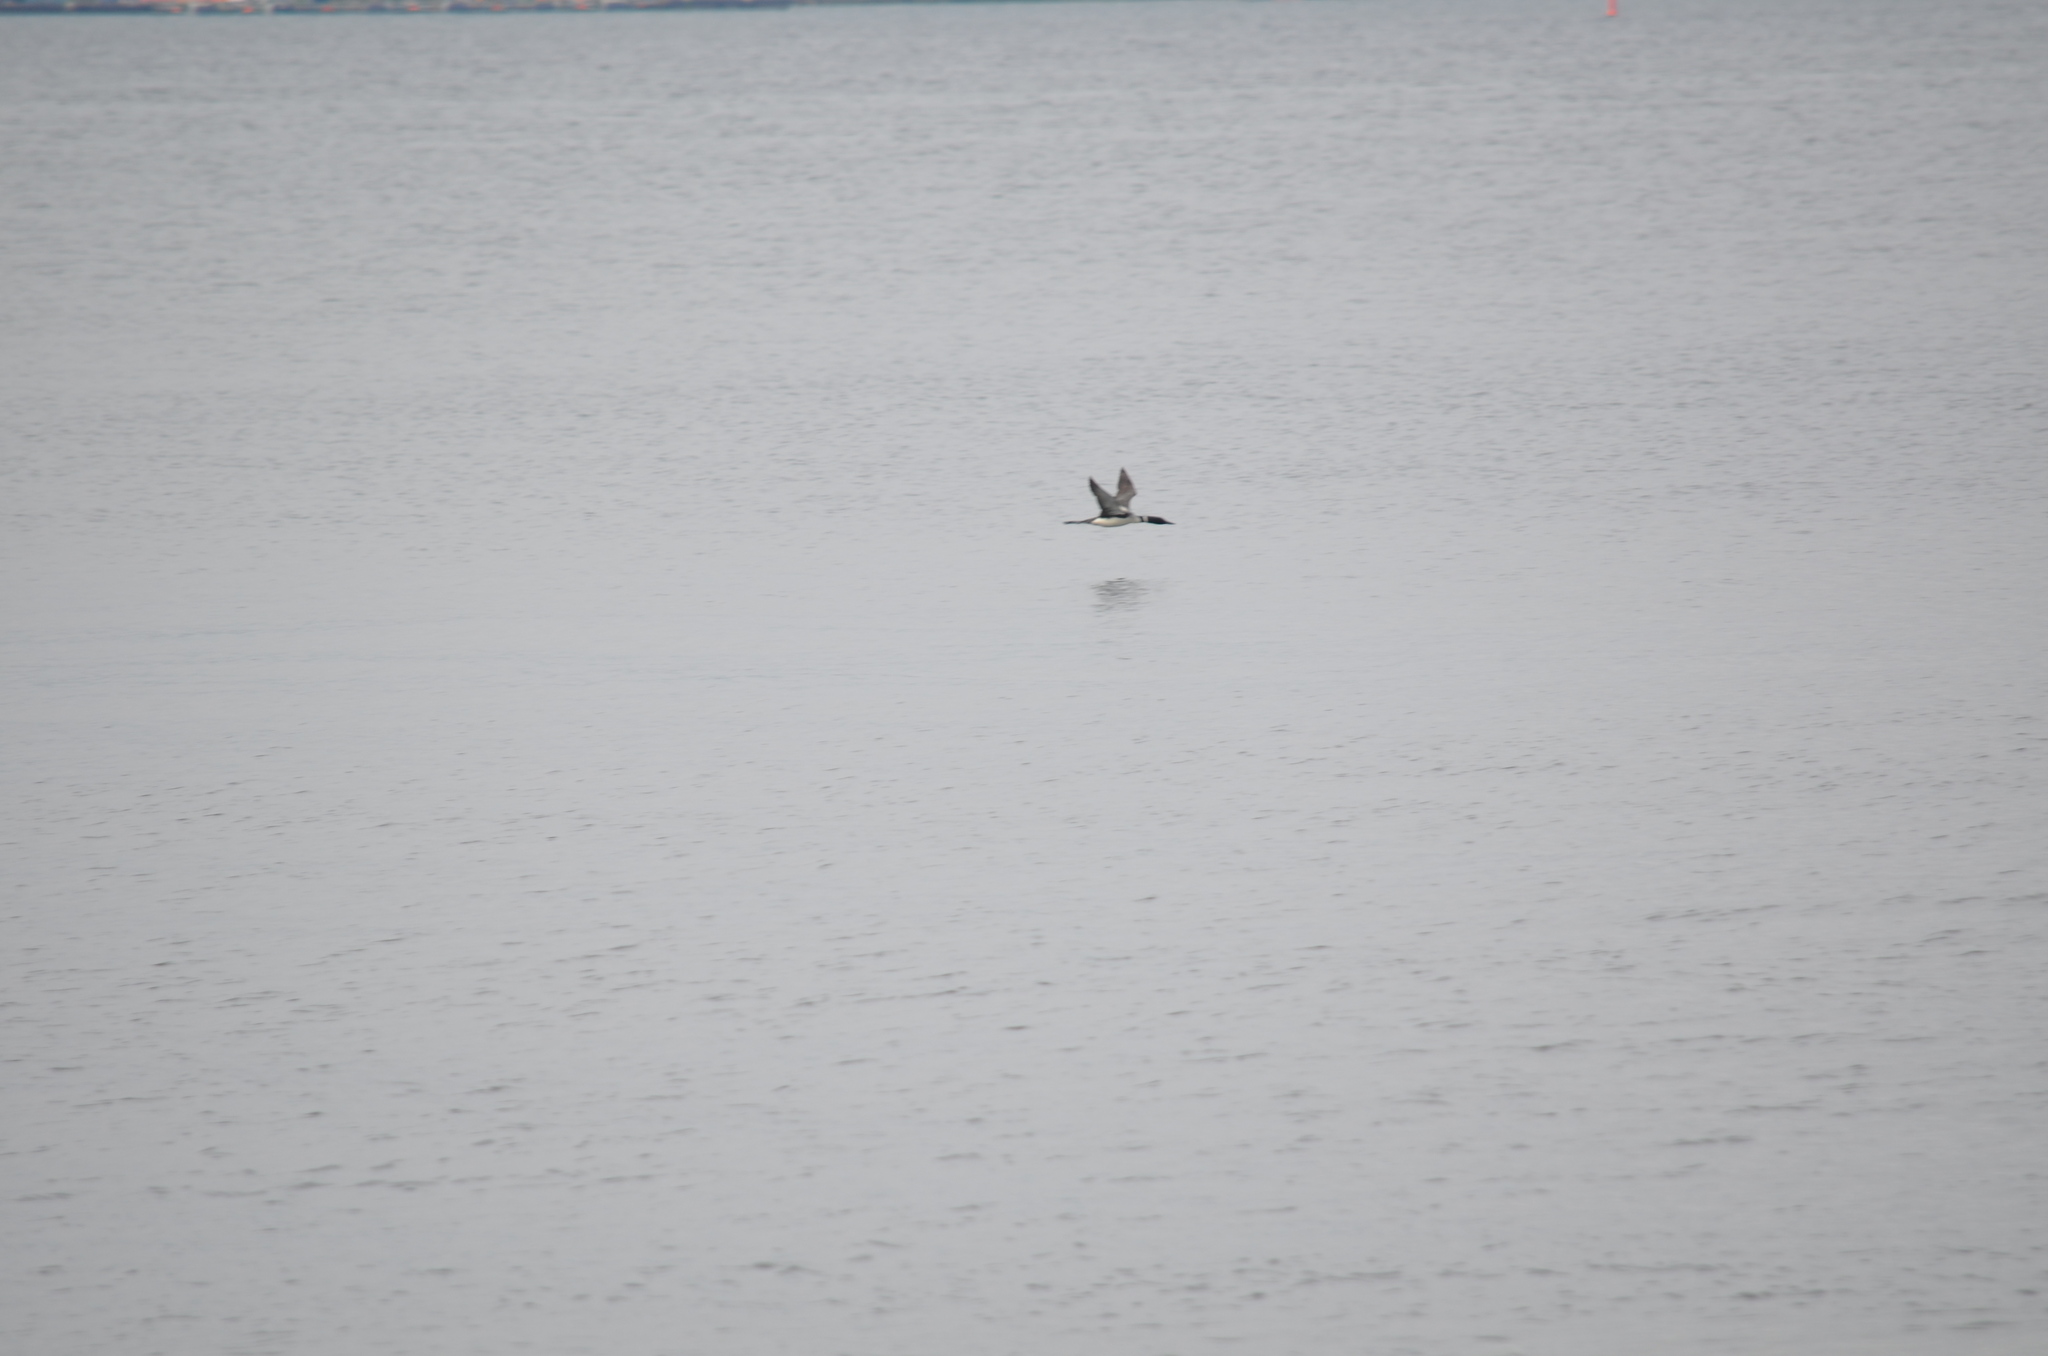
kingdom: Animalia
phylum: Chordata
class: Aves
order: Gaviiformes
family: Gaviidae
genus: Gavia
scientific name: Gavia immer
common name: Common loon
